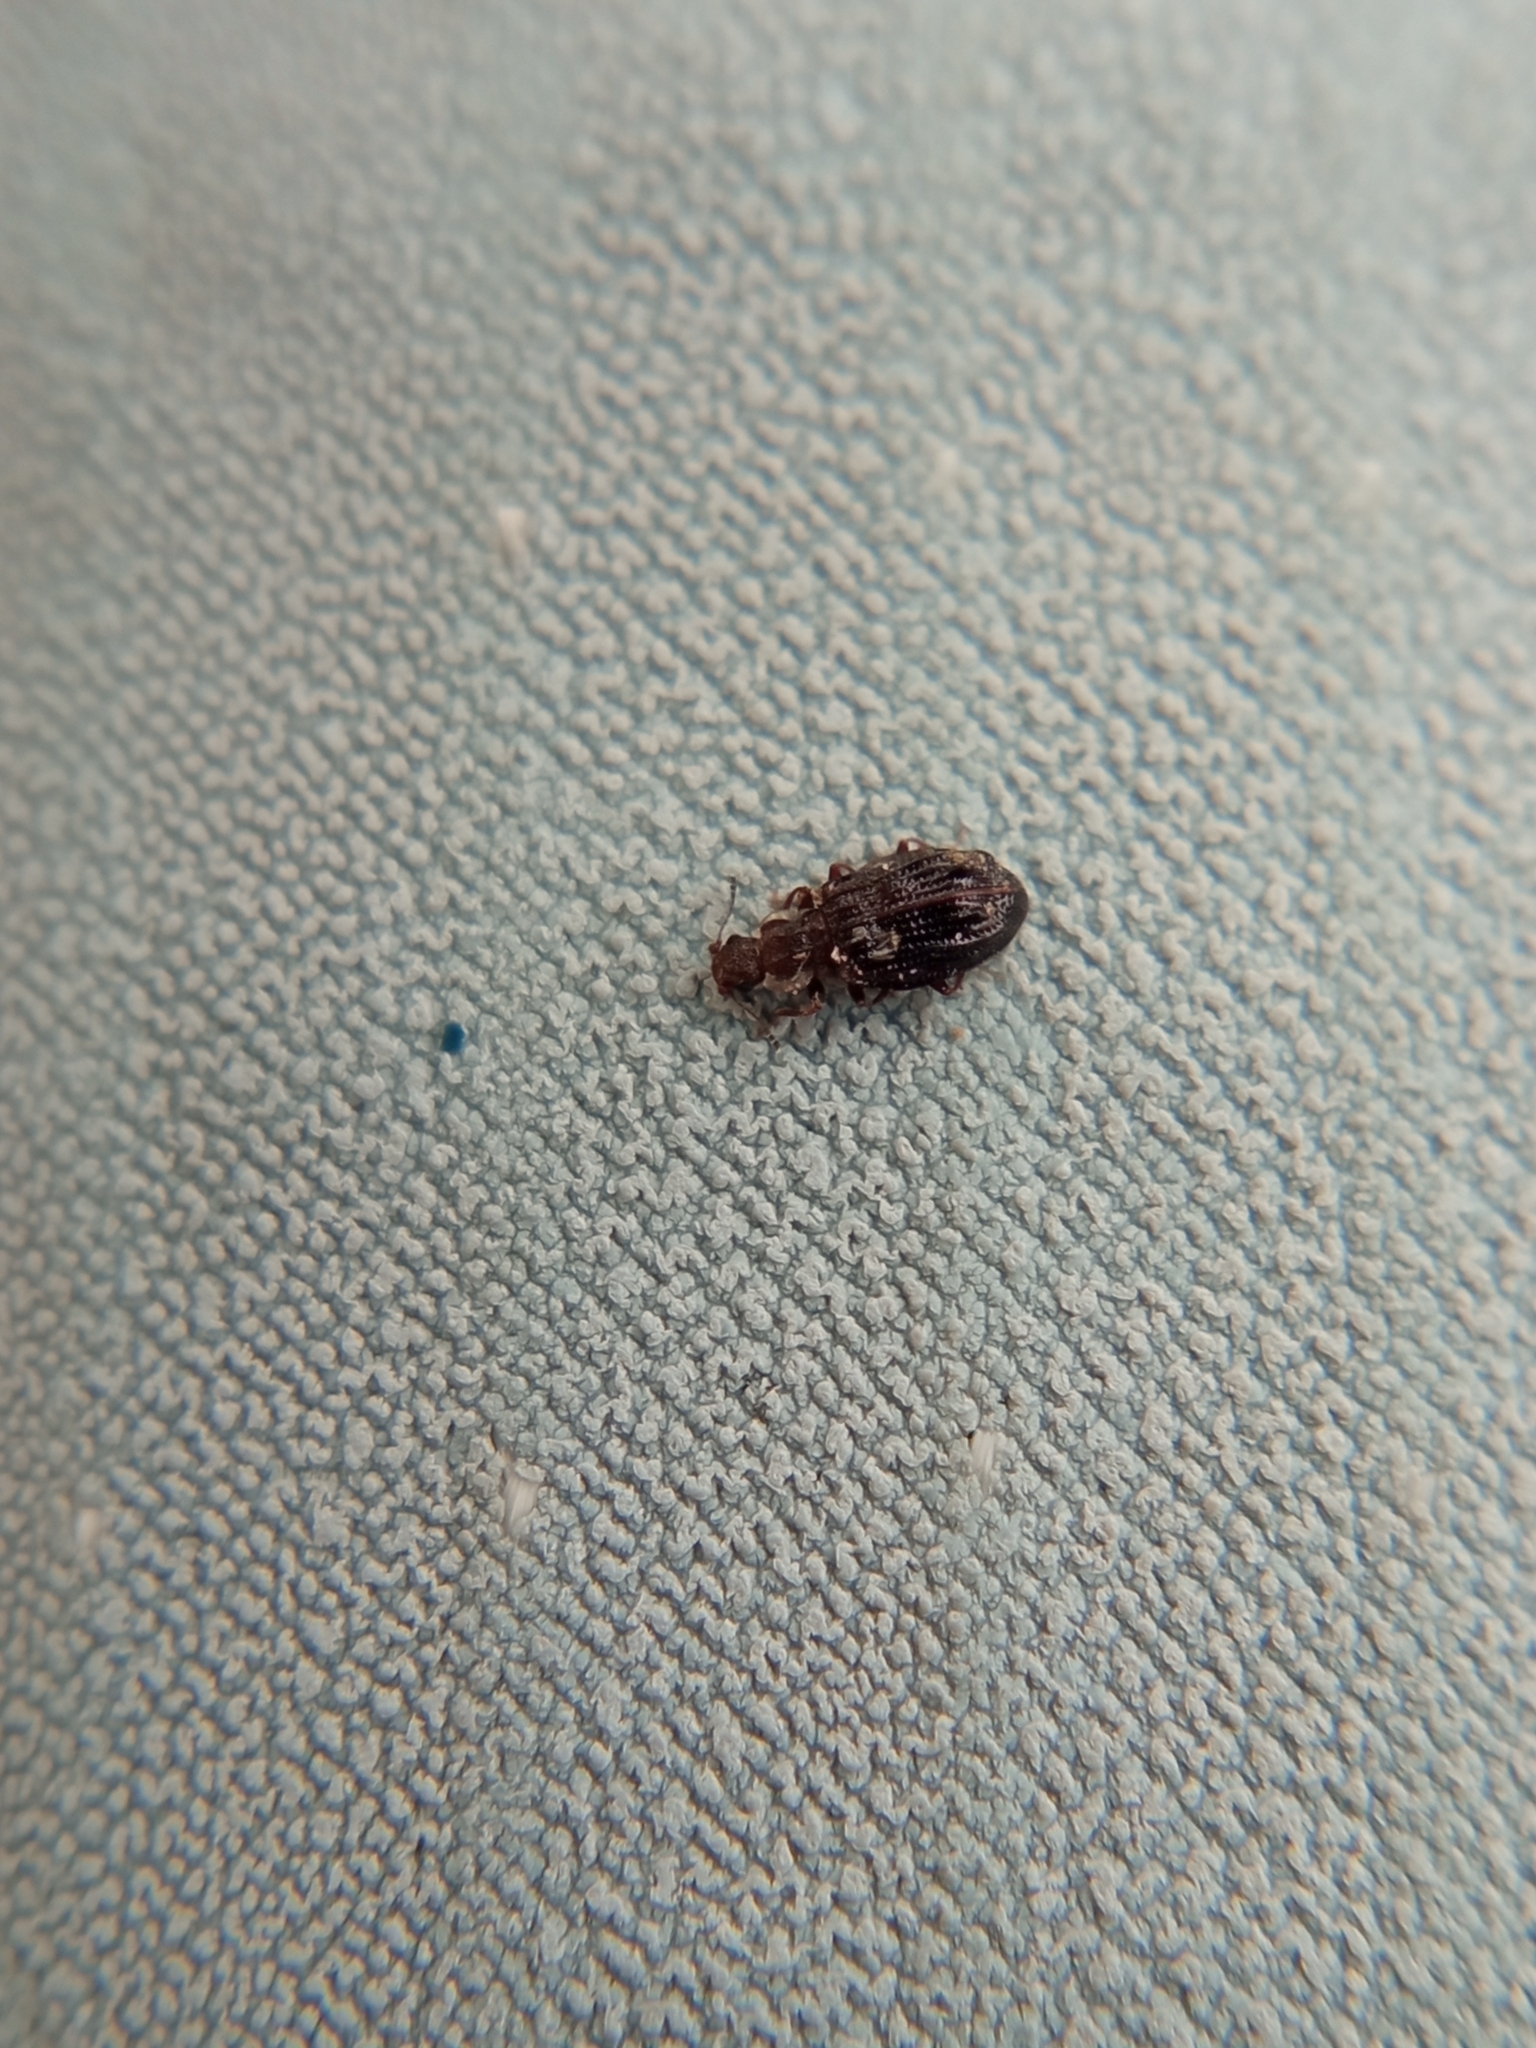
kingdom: Animalia
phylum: Arthropoda
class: Insecta
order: Coleoptera
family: Latridiidae
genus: Cartodere
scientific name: Cartodere nodifer
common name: Humpbacked minute scavenger beetle
